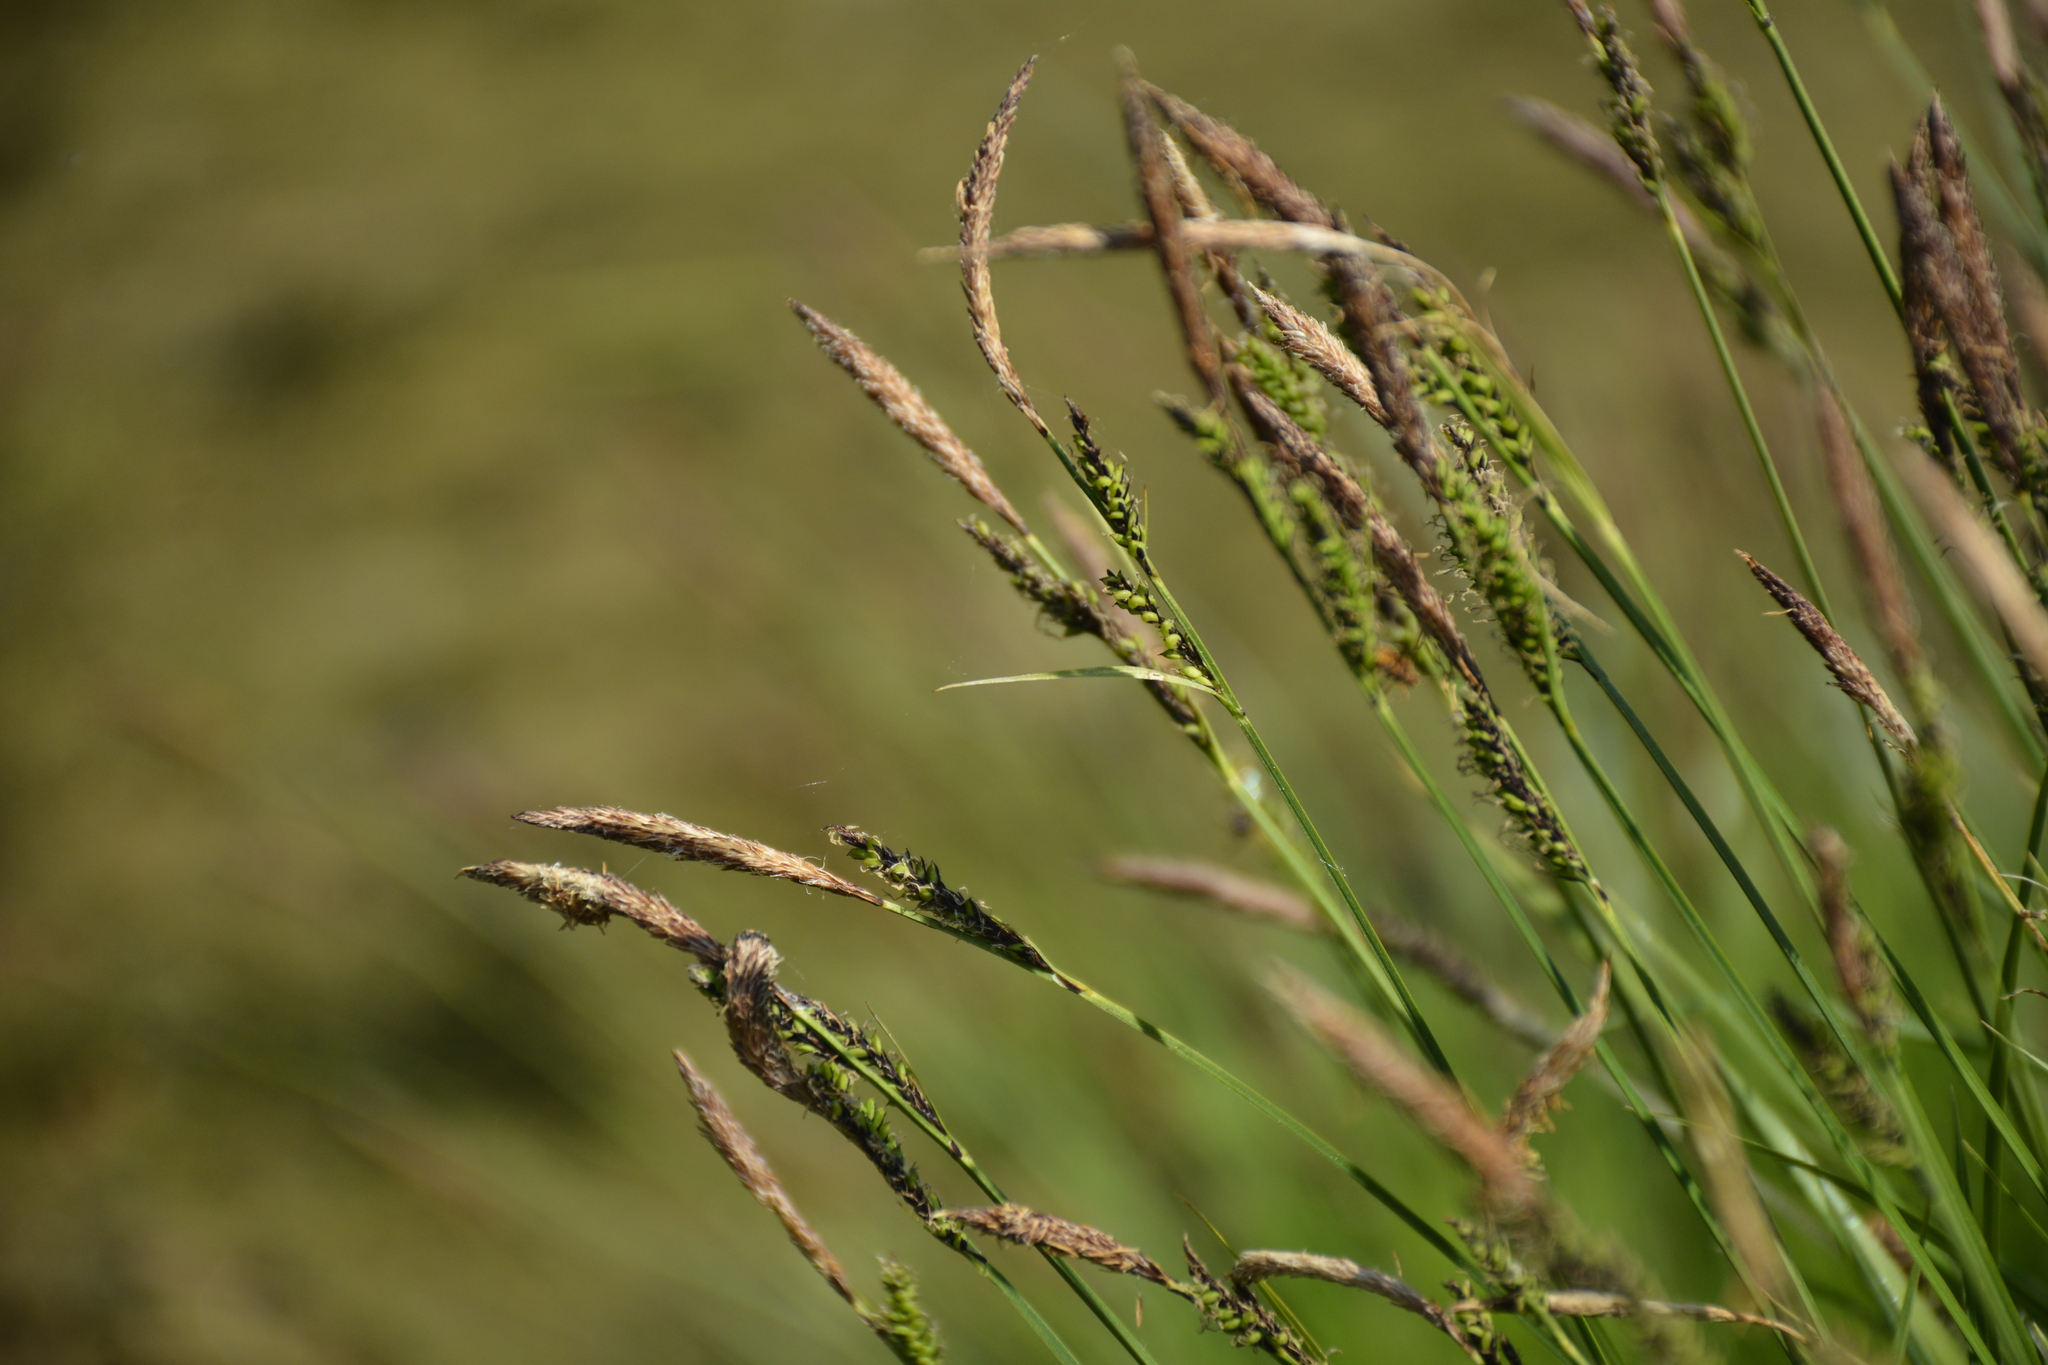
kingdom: Plantae
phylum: Tracheophyta
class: Liliopsida
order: Poales
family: Cyperaceae
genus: Carex
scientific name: Carex cespitosa
